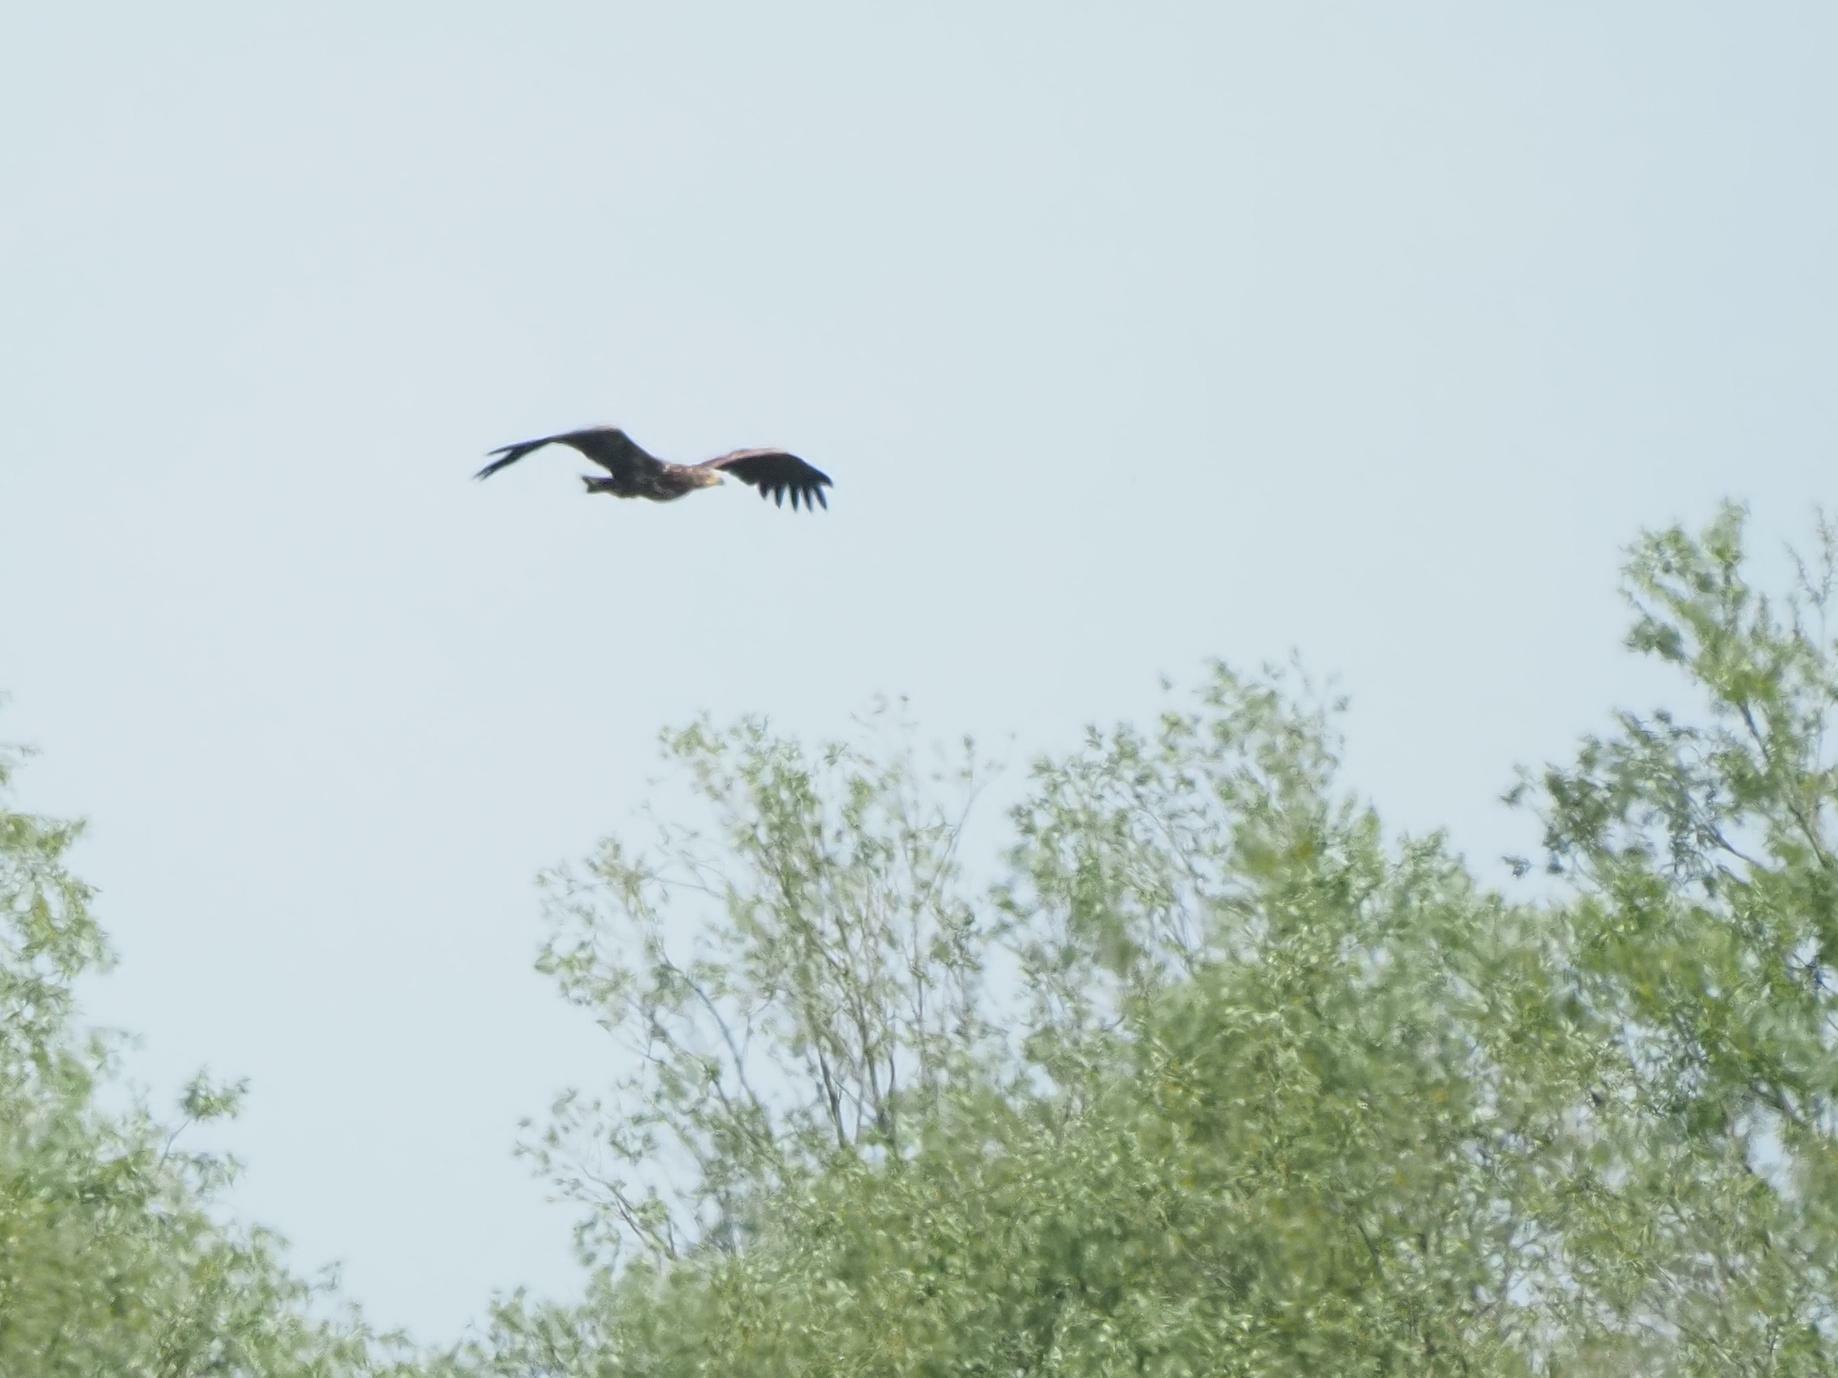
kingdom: Animalia
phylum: Chordata
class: Aves
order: Accipitriformes
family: Accipitridae
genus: Haliaeetus
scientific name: Haliaeetus albicilla
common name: White-tailed eagle
